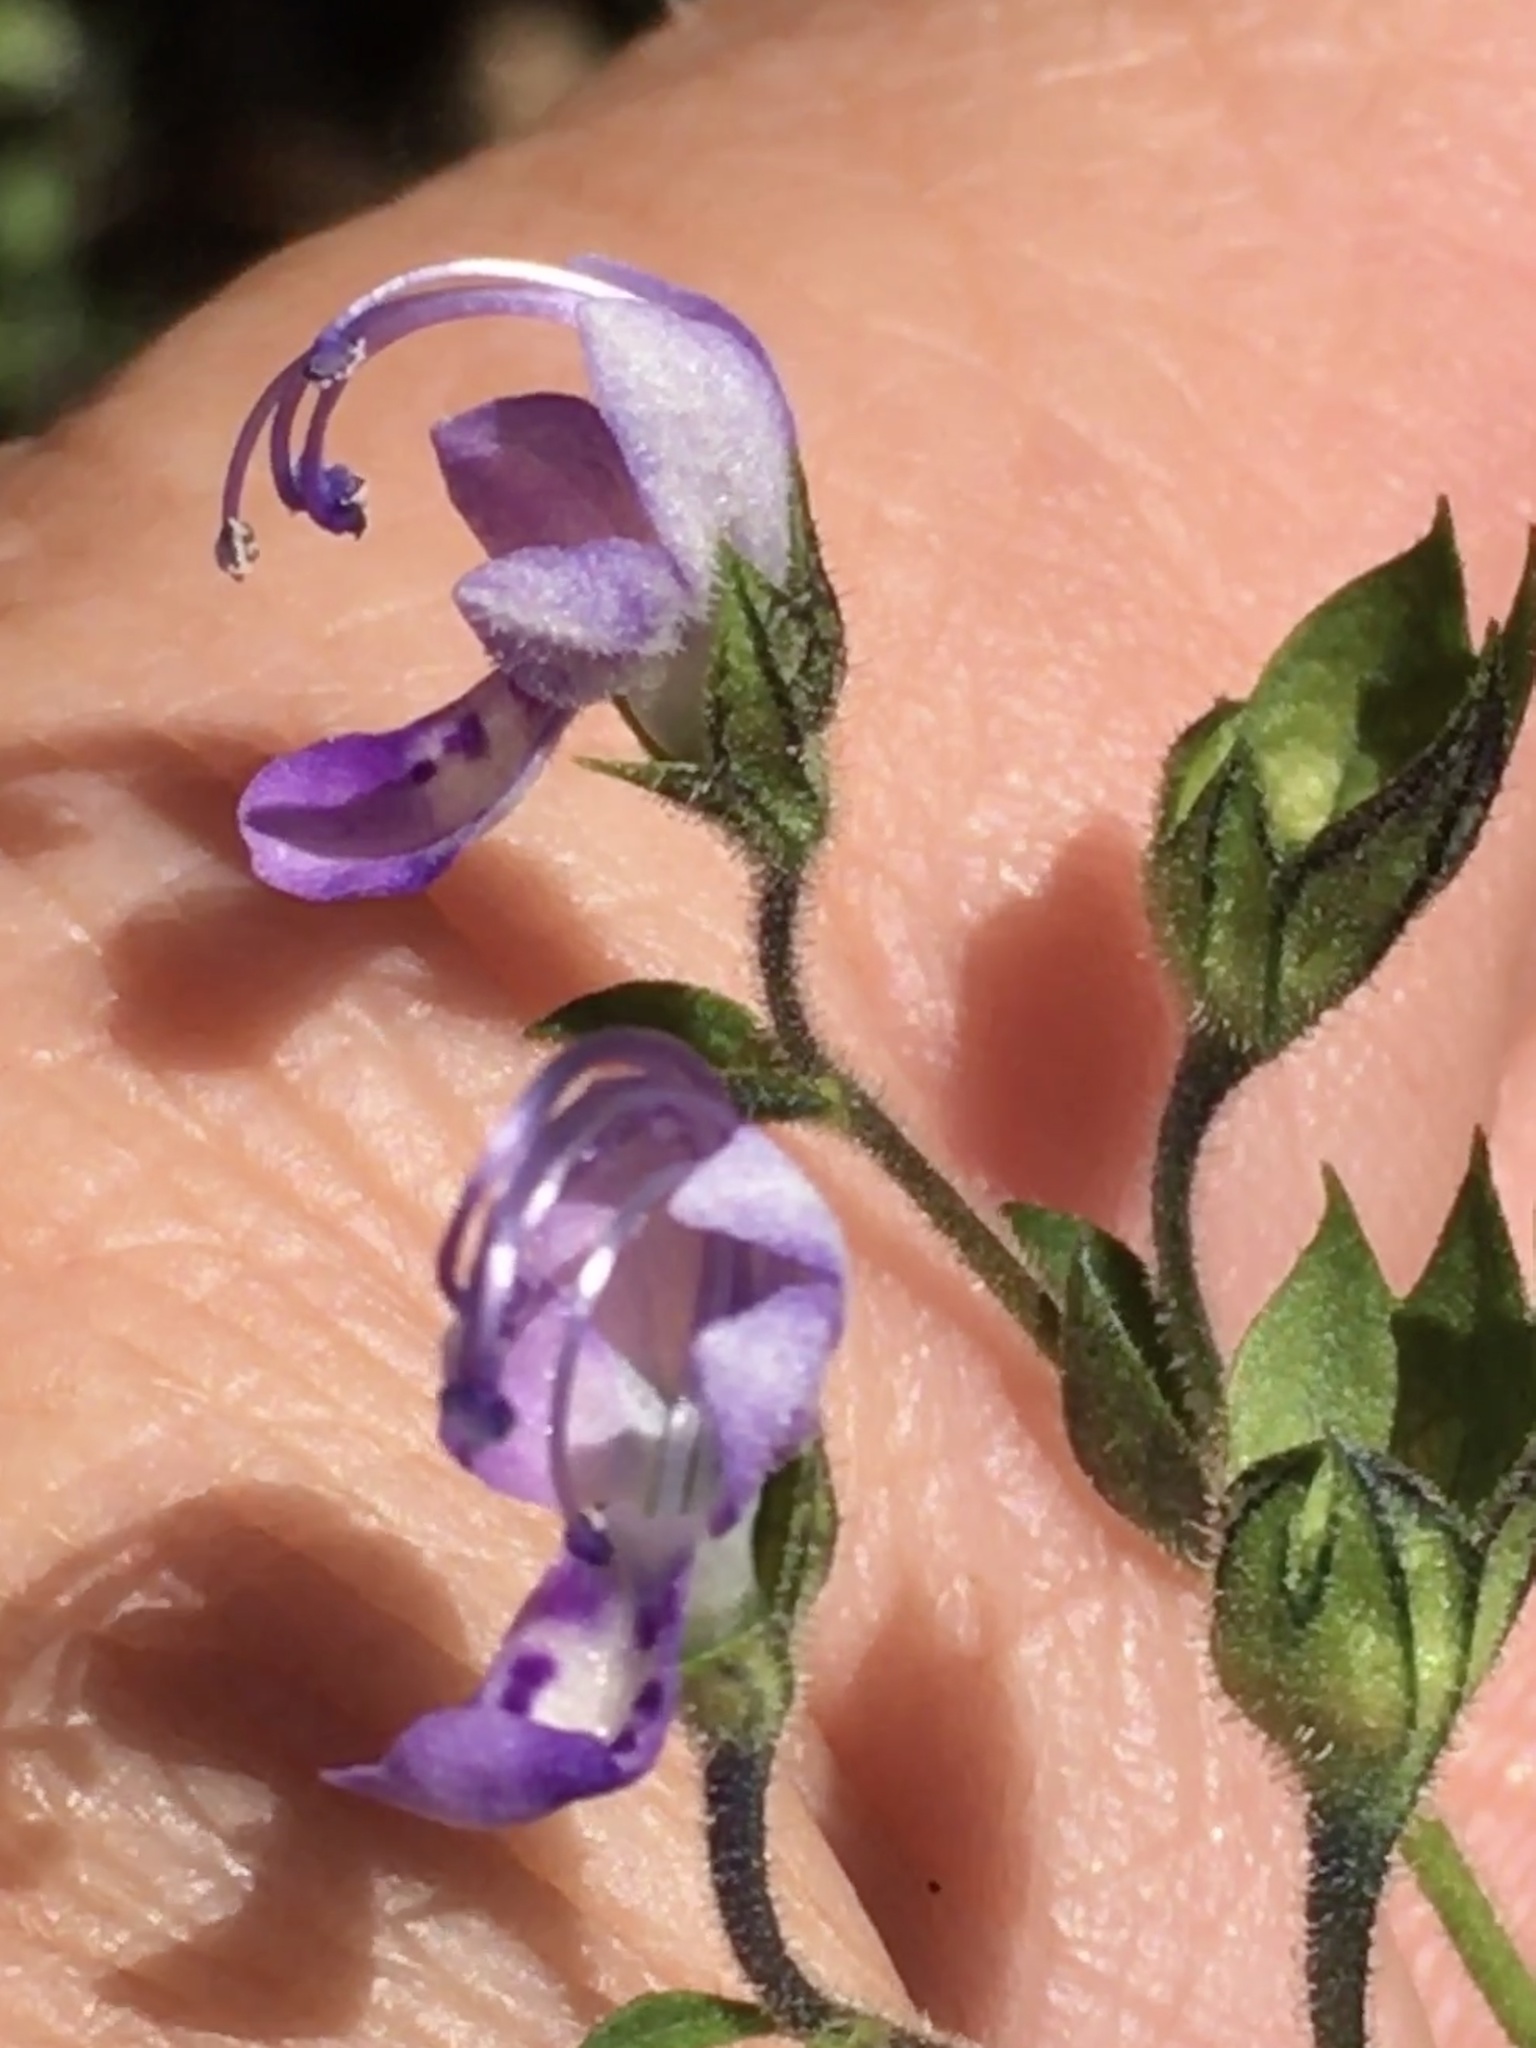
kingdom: Plantae
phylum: Tracheophyta
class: Magnoliopsida
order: Lamiales
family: Lamiaceae
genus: Trichostema
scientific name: Trichostema dichotomum
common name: Bastard pennyroyal
